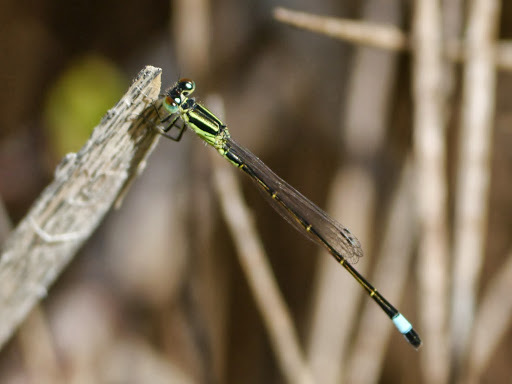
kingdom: Animalia
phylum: Arthropoda
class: Insecta
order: Odonata
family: Coenagrionidae
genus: Ischnura
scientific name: Ischnura genei
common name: Island bluetail
